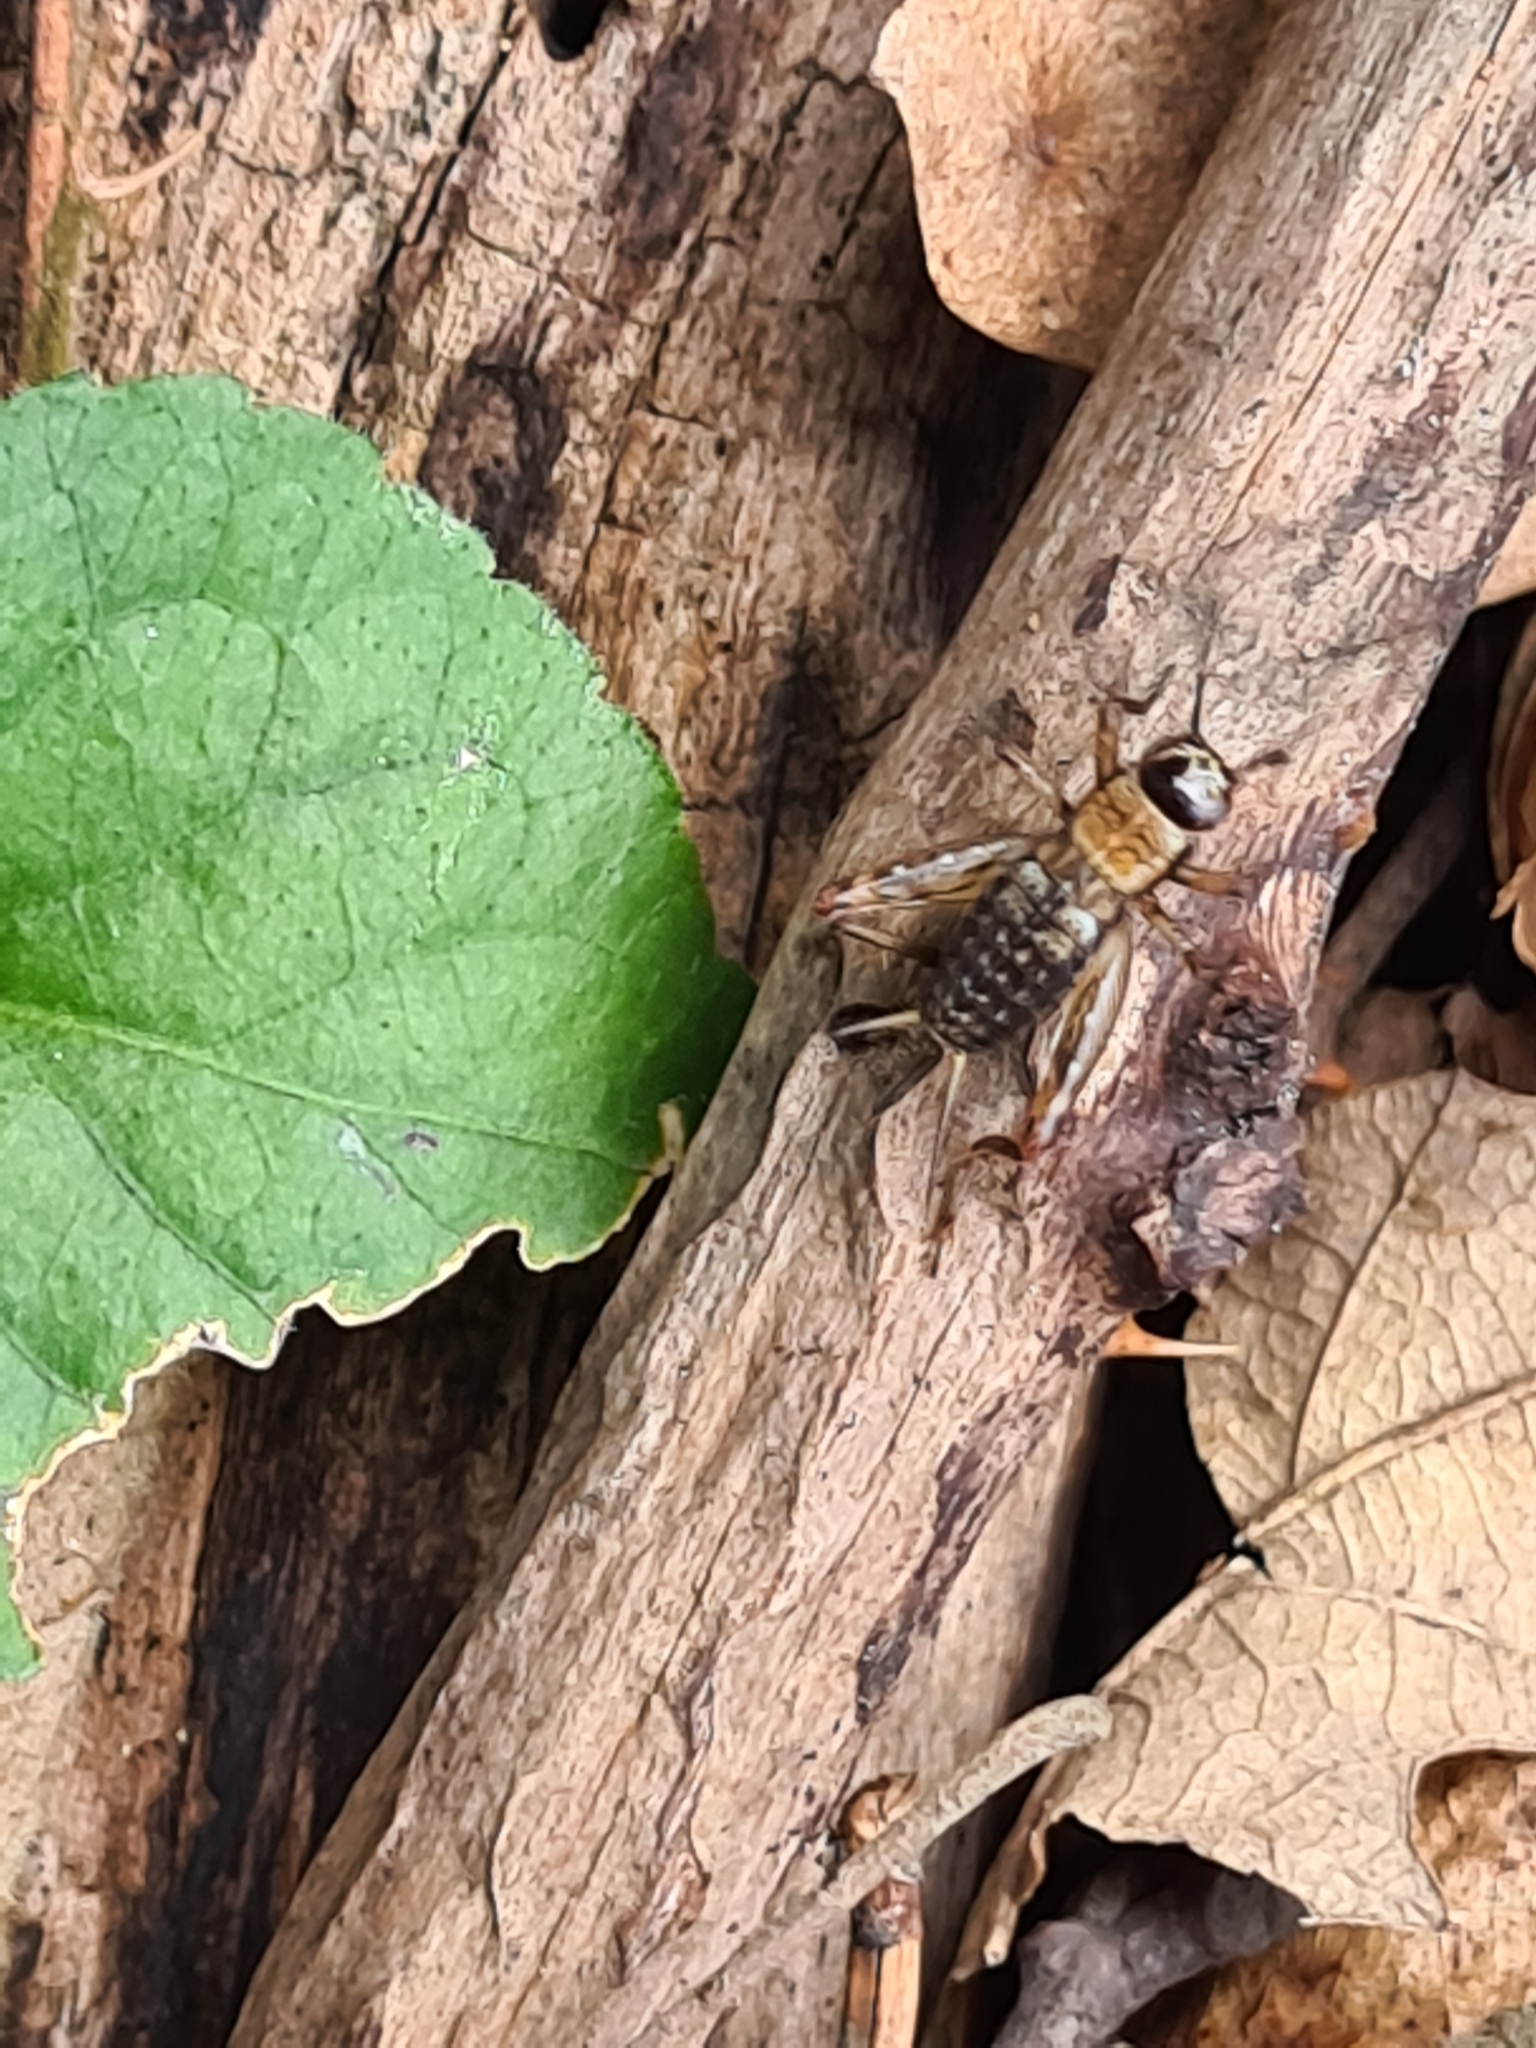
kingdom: Animalia
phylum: Arthropoda
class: Insecta
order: Orthoptera
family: Trigonidiidae
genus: Nemobius
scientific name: Nemobius sylvestris
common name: Wood-cricket
